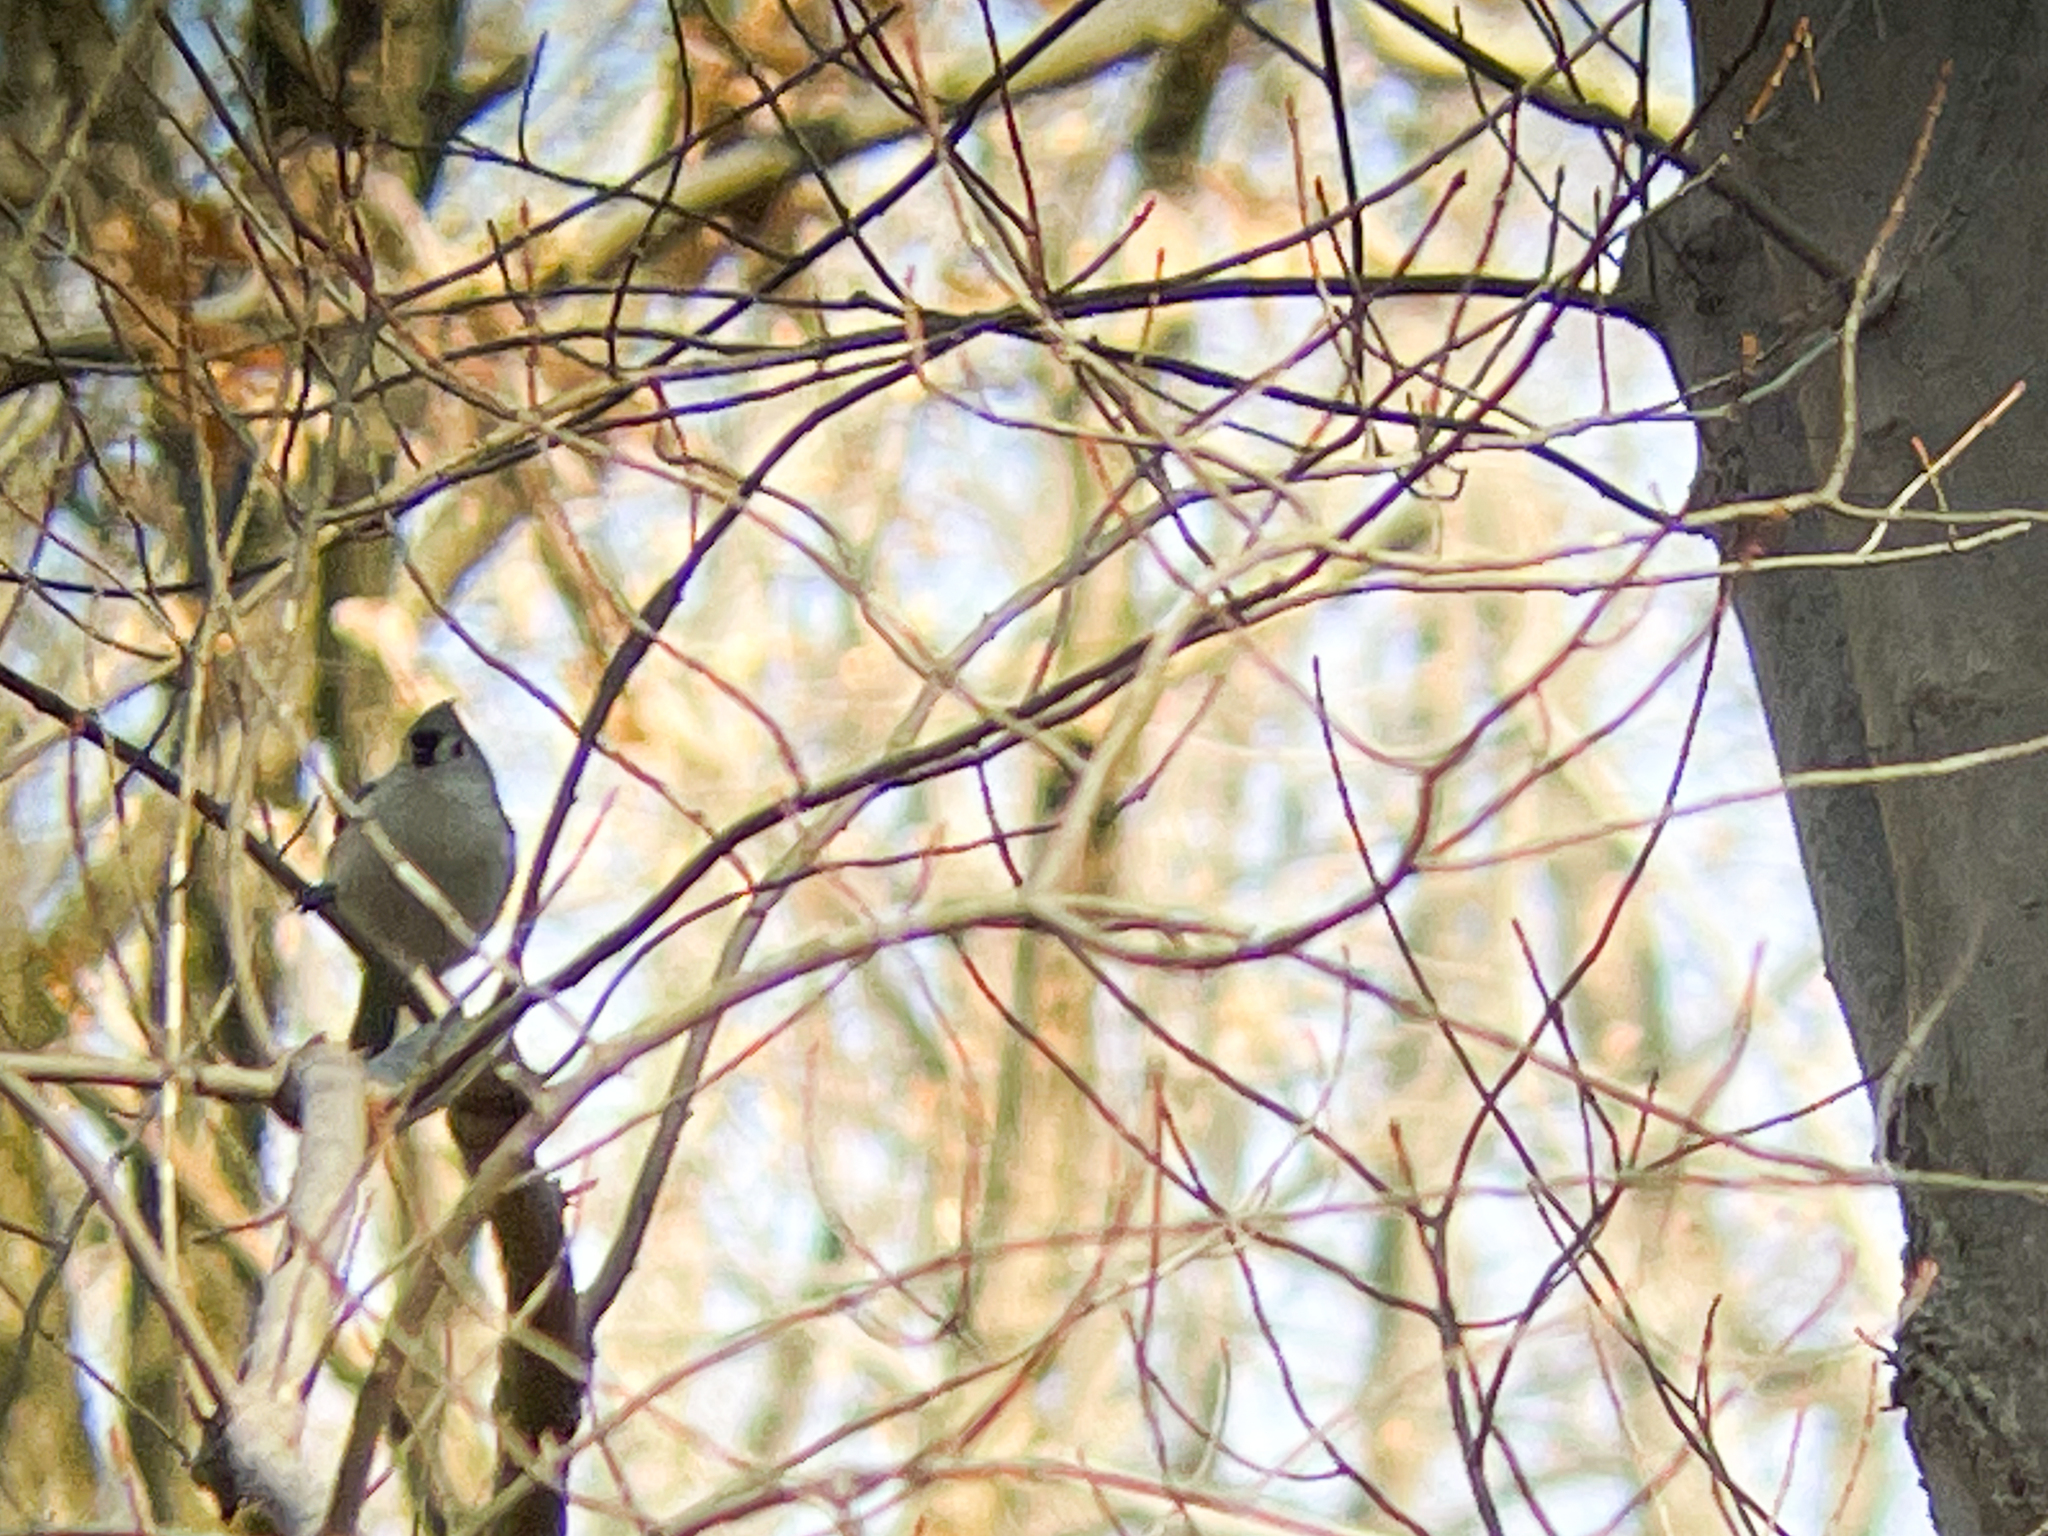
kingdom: Animalia
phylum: Chordata
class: Aves
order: Passeriformes
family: Paridae
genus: Baeolophus
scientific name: Baeolophus bicolor
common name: Tufted titmouse
